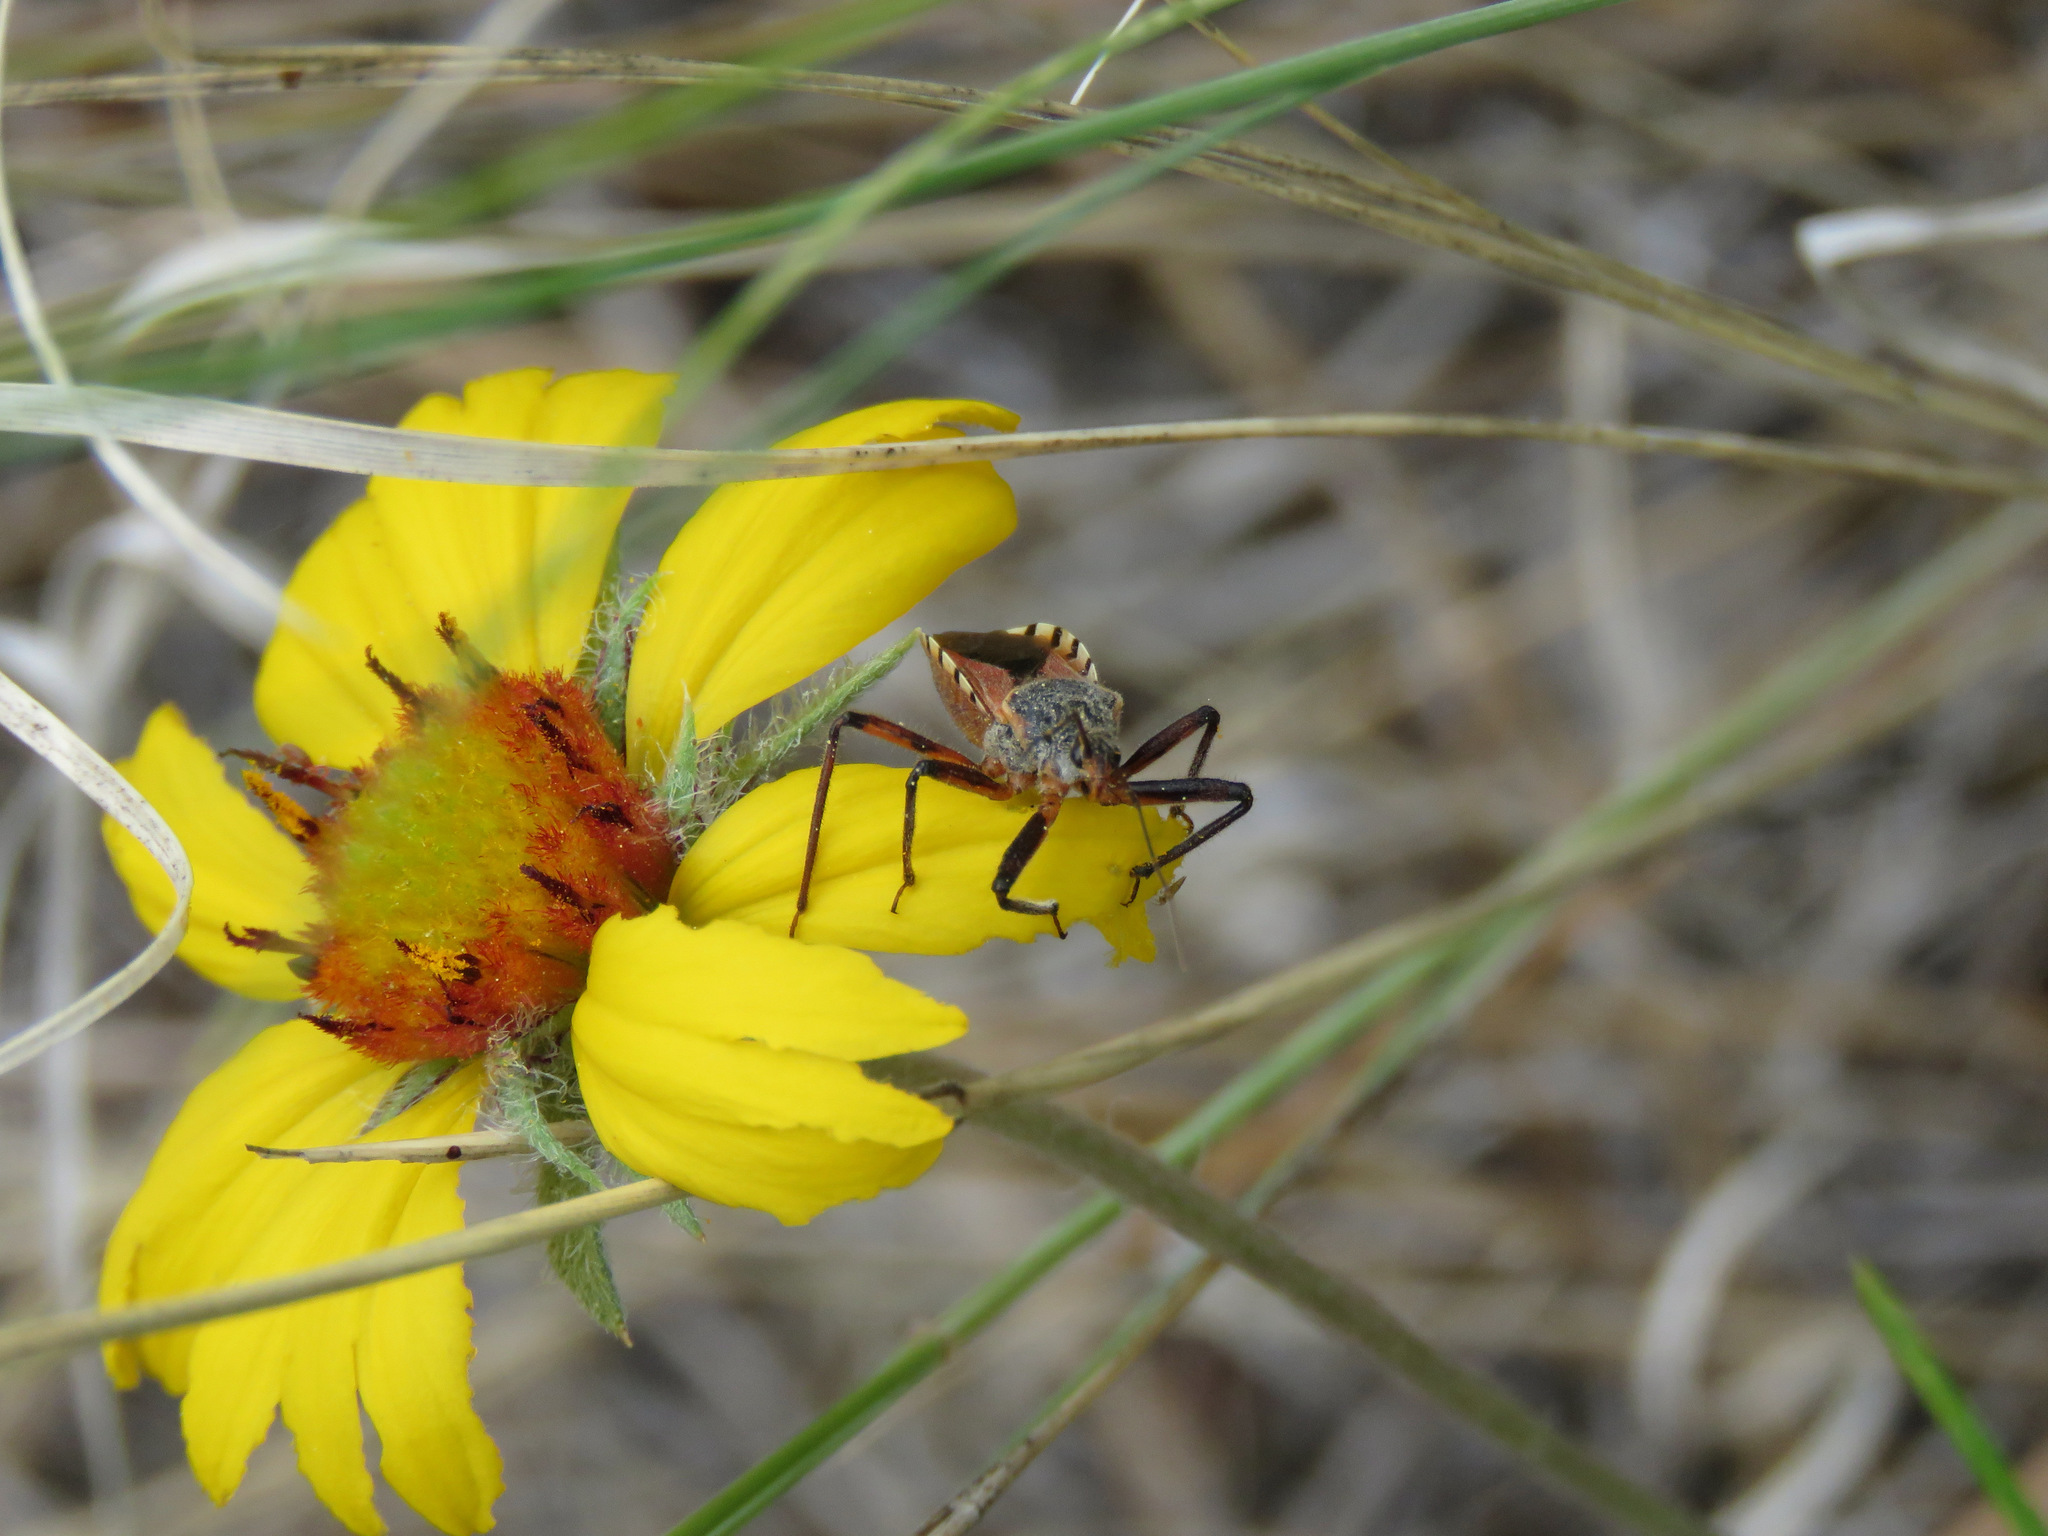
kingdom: Animalia
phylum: Arthropoda
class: Insecta
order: Hemiptera
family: Reduviidae
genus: Rhynocoris
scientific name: Rhynocoris ventralis
